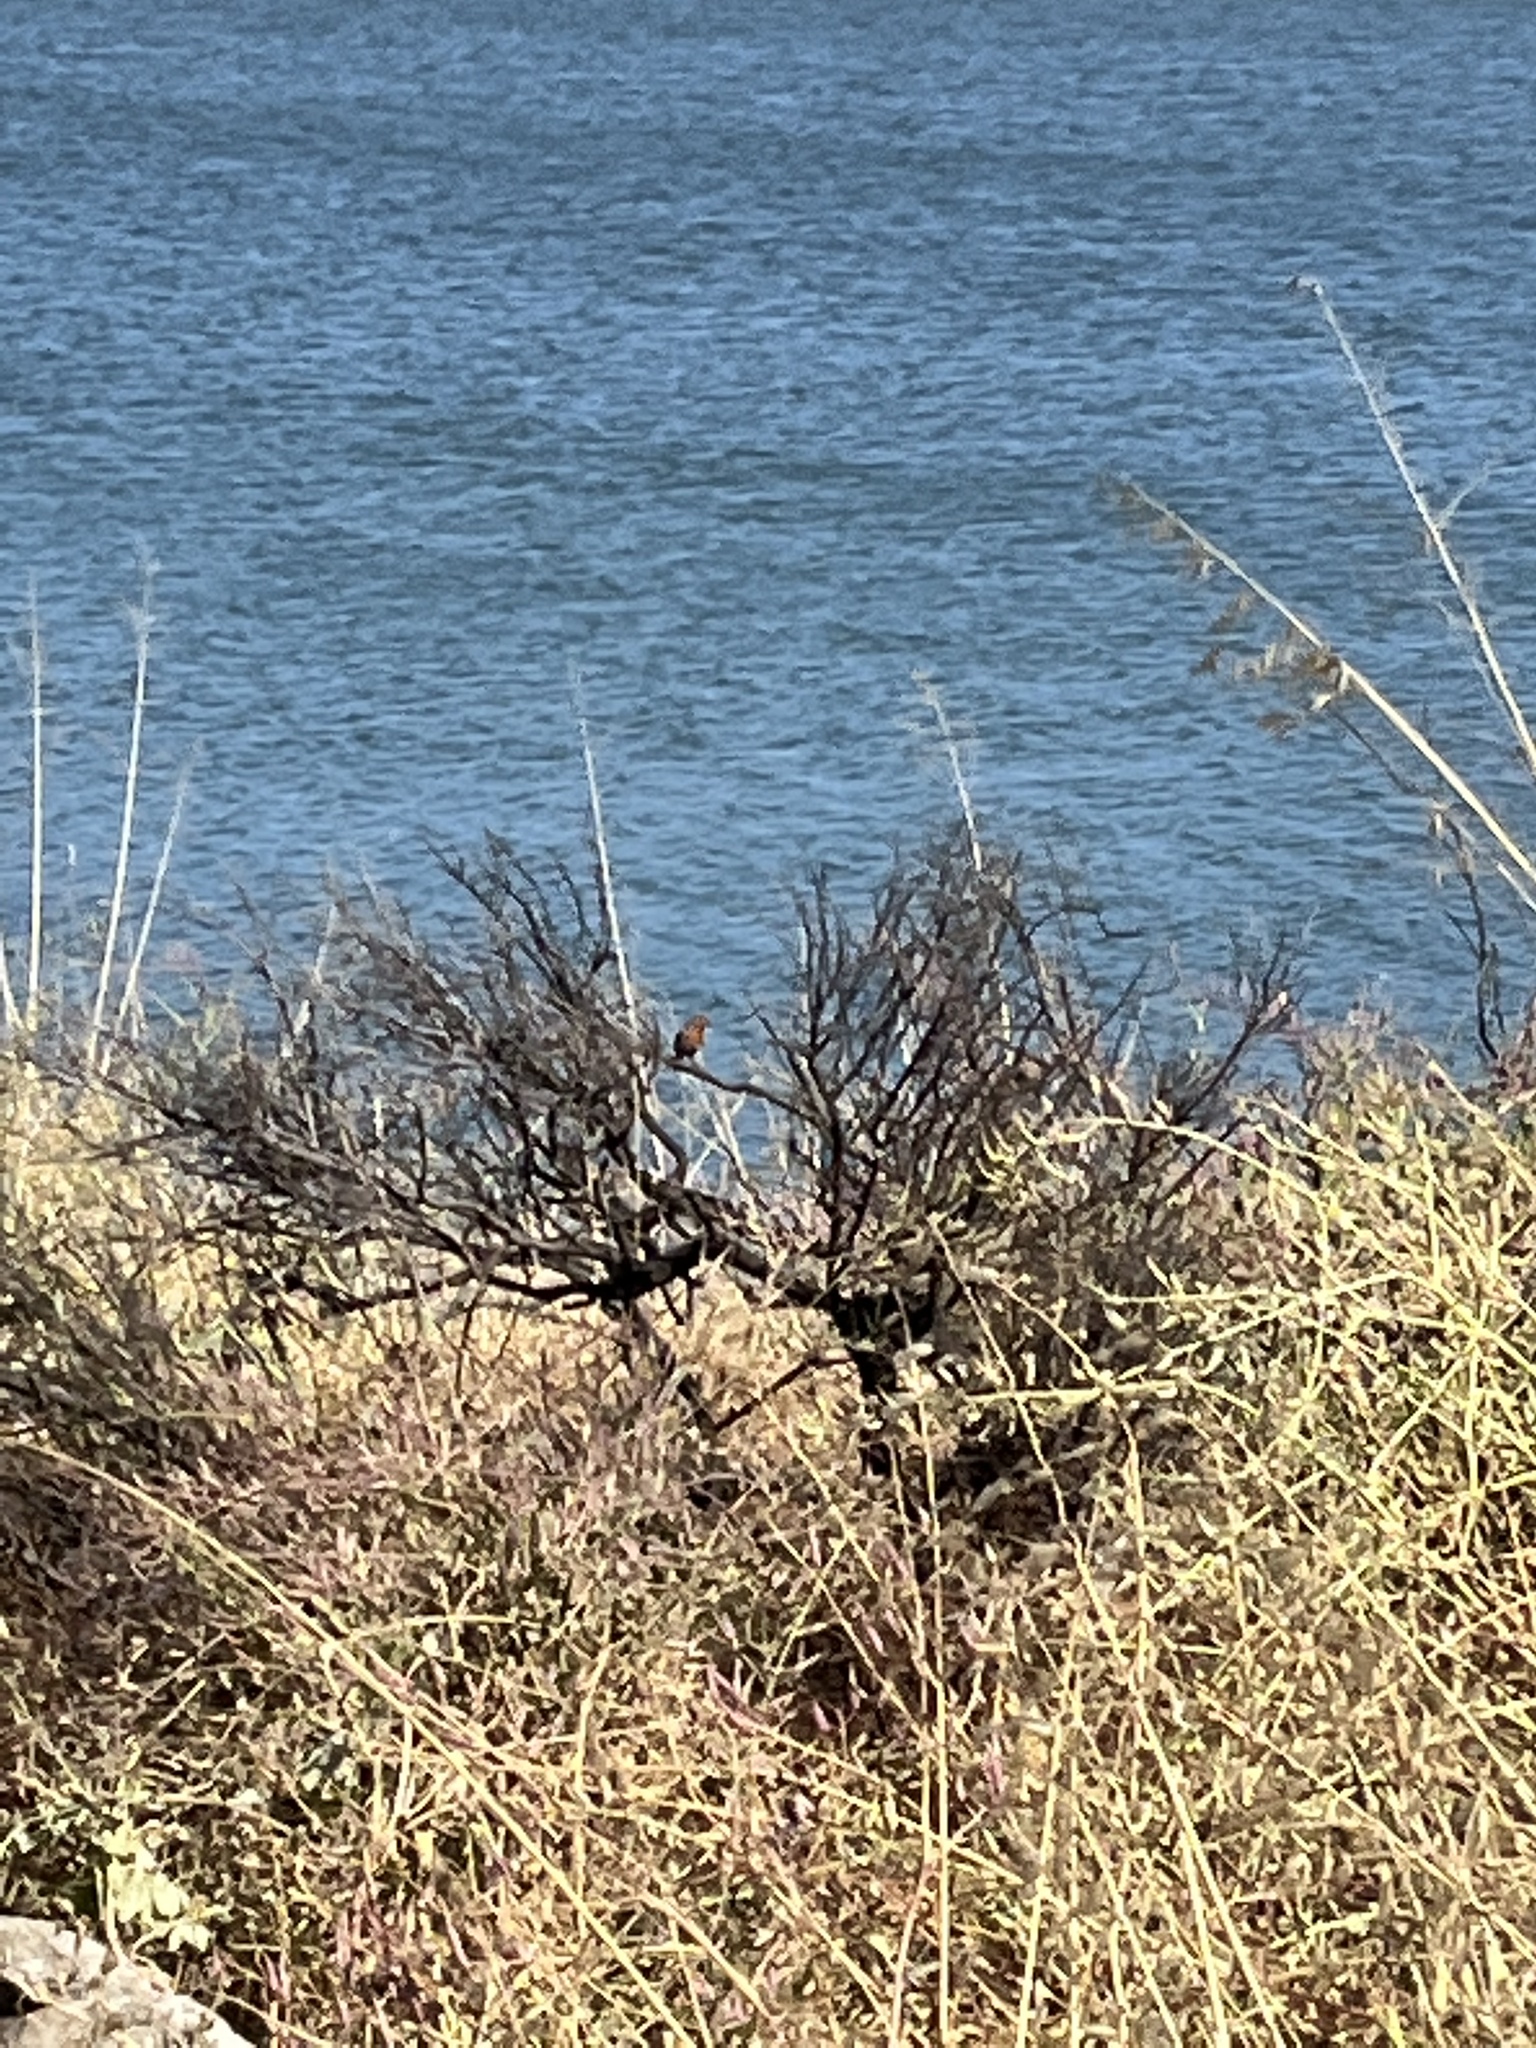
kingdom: Animalia
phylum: Chordata
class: Aves
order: Passeriformes
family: Fringillidae
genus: Haemorhous
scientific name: Haemorhous mexicanus
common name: House finch
